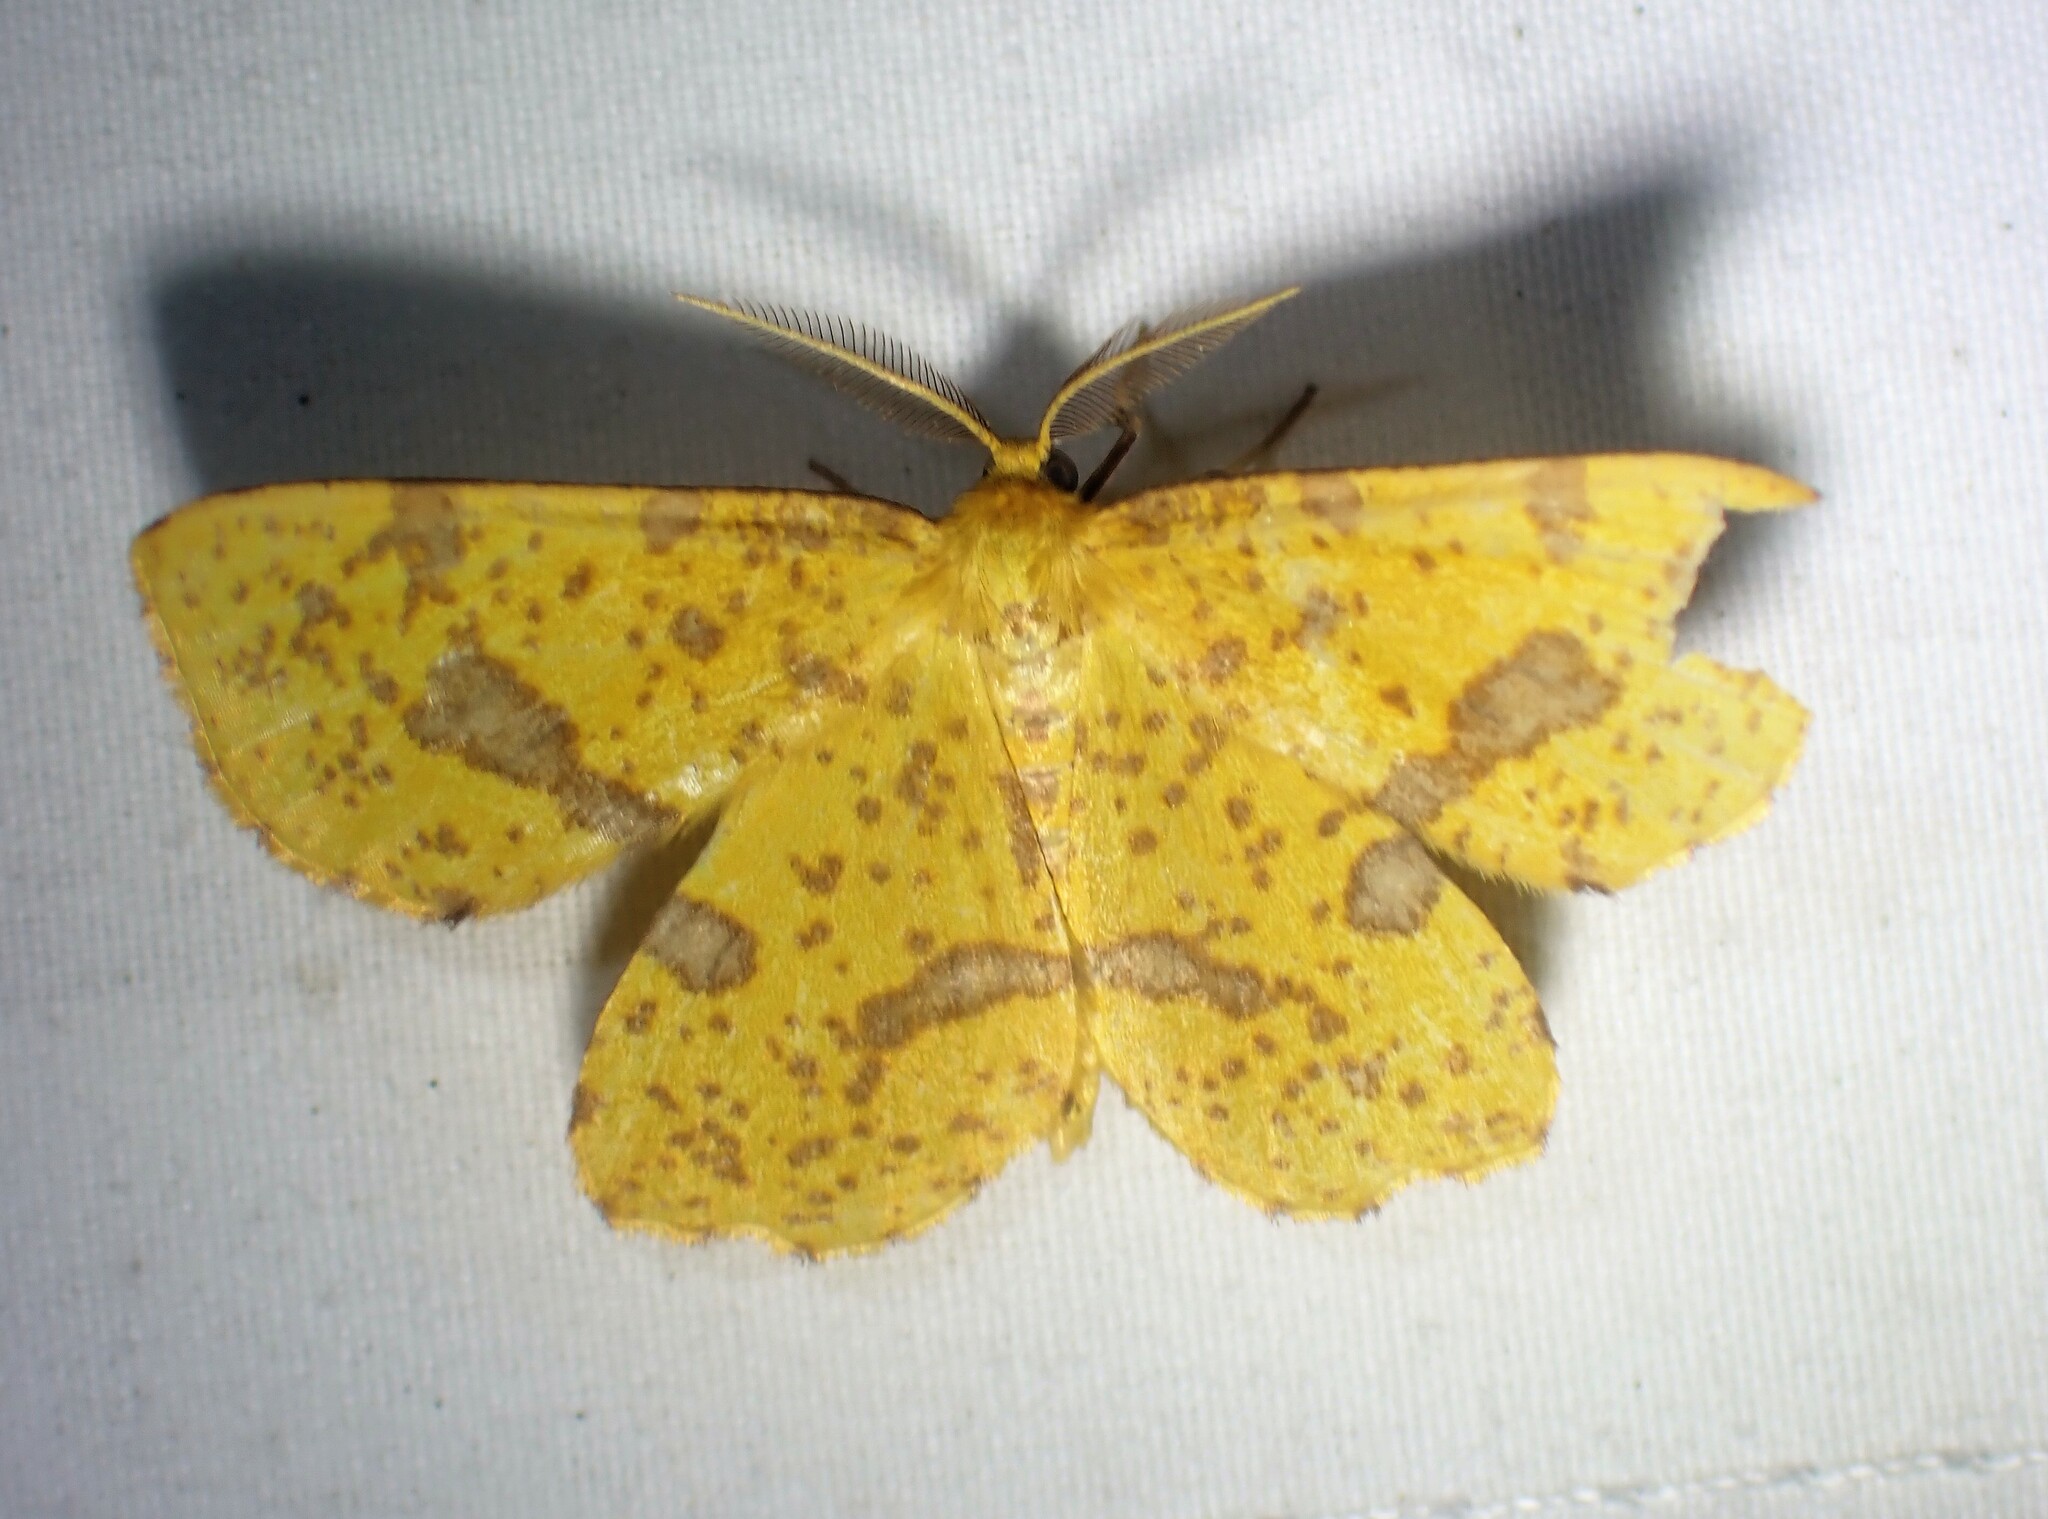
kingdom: Animalia
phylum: Arthropoda
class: Insecta
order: Lepidoptera
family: Geometridae
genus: Xanthotype
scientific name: Xanthotype
